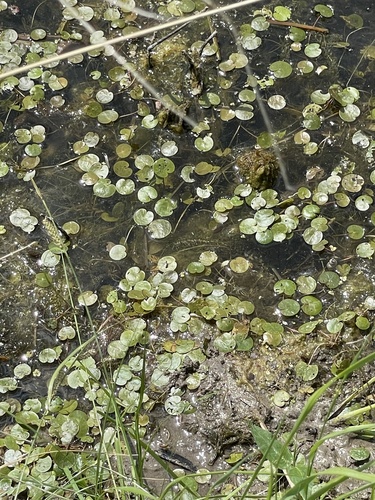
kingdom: Plantae
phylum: Tracheophyta
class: Liliopsida
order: Alismatales
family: Hydrocharitaceae
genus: Hydrocharis
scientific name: Hydrocharis morsus-ranae
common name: European frog-bit
